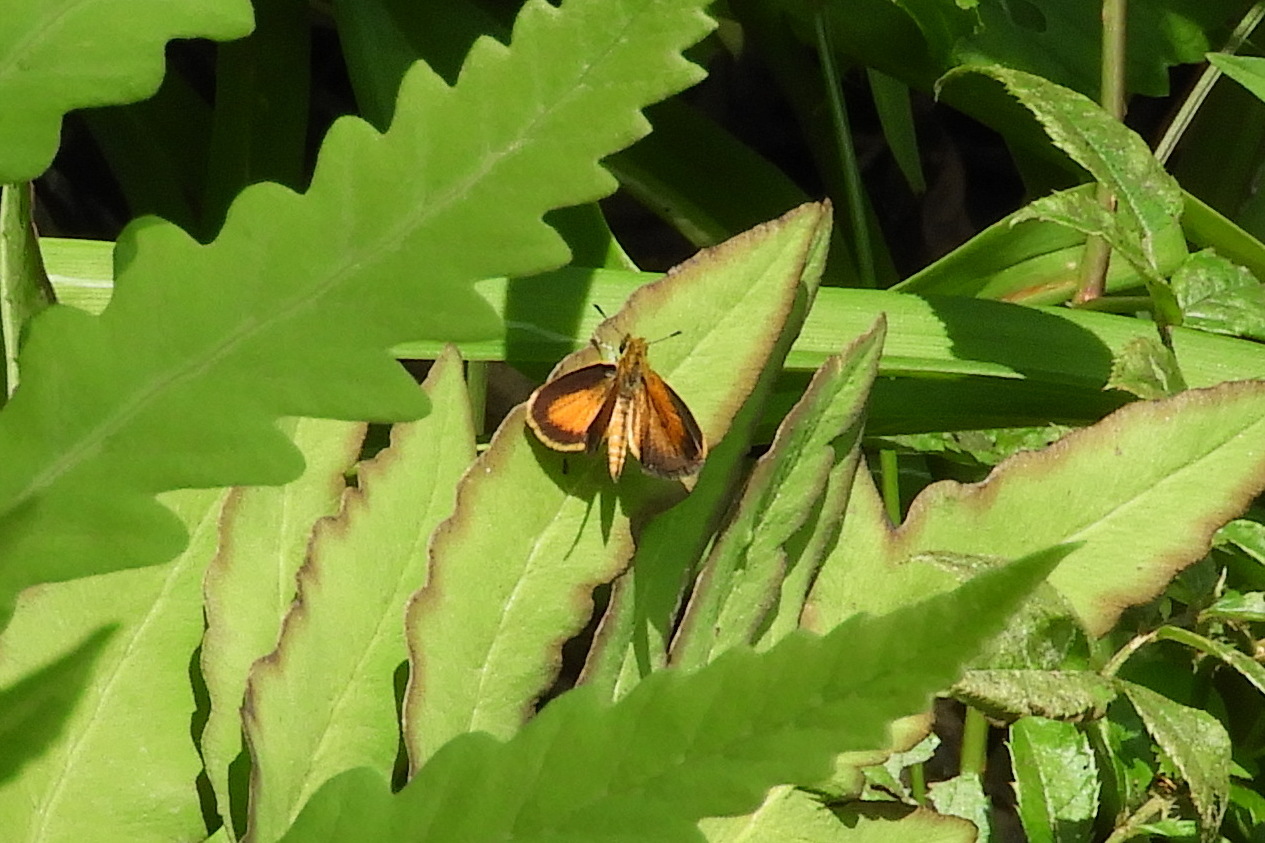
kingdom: Animalia
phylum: Arthropoda
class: Insecta
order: Lepidoptera
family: Hesperiidae
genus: Ancyloxypha
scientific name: Ancyloxypha numitor
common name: Least skipper
